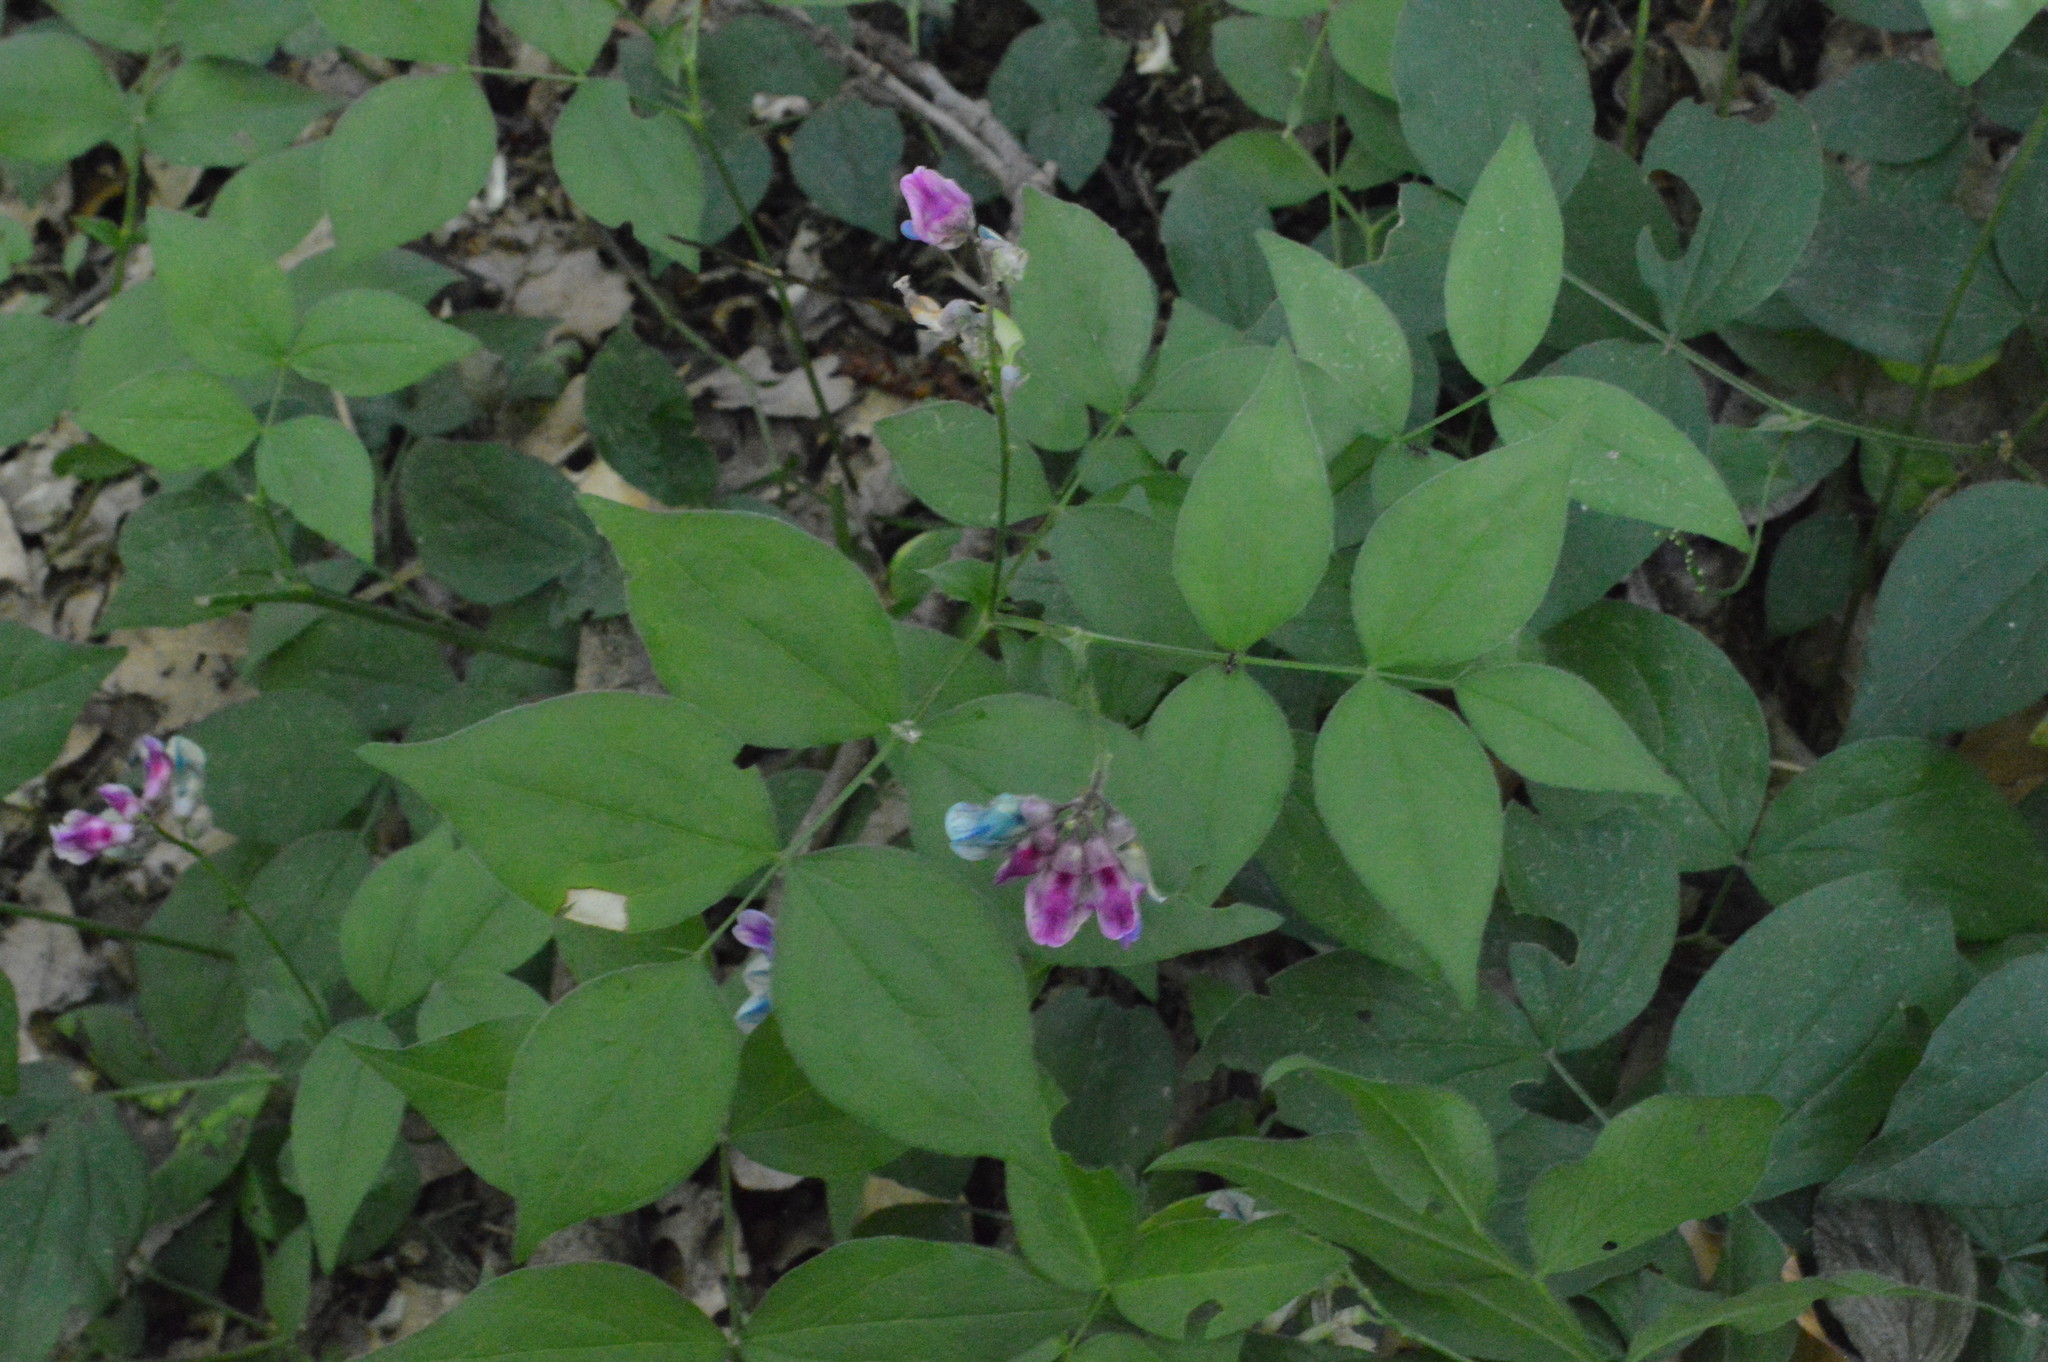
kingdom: Plantae
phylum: Tracheophyta
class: Magnoliopsida
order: Fabales
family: Fabaceae
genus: Lathyrus
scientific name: Lathyrus vernus
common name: Spring pea
